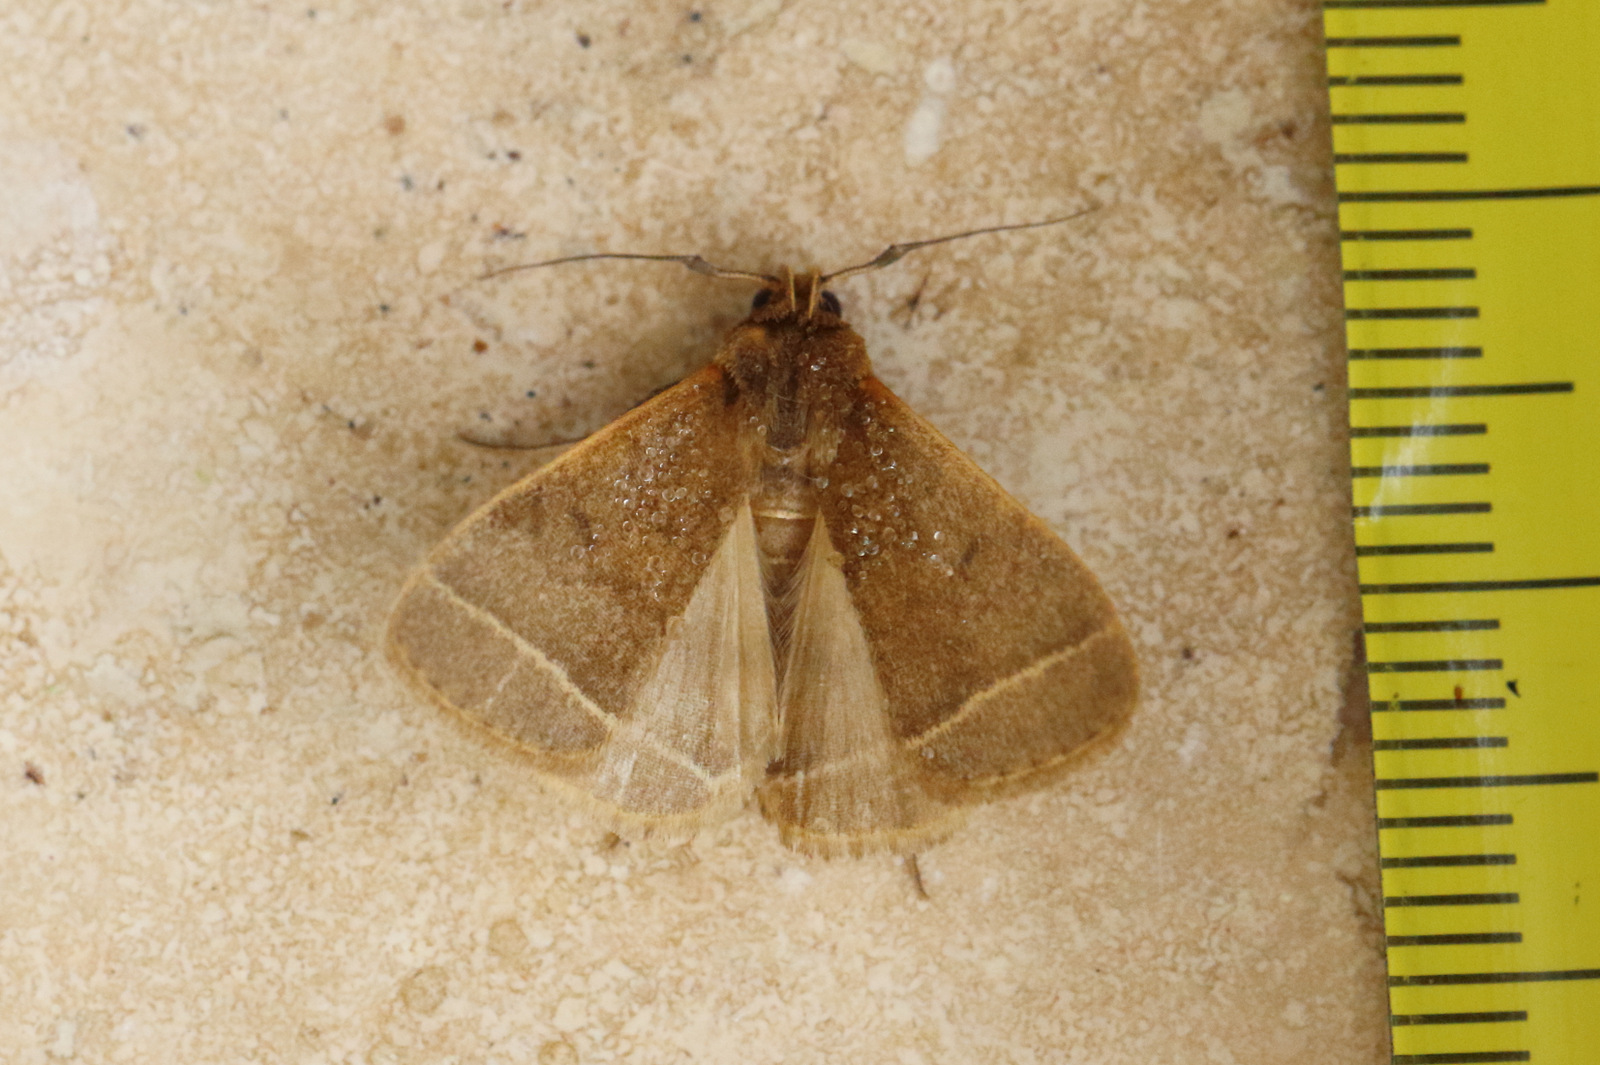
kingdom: Animalia
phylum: Arthropoda
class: Insecta
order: Lepidoptera
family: Erebidae
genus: Simplicia
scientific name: Simplicia cornicalis
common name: Tiki hut litter moth
